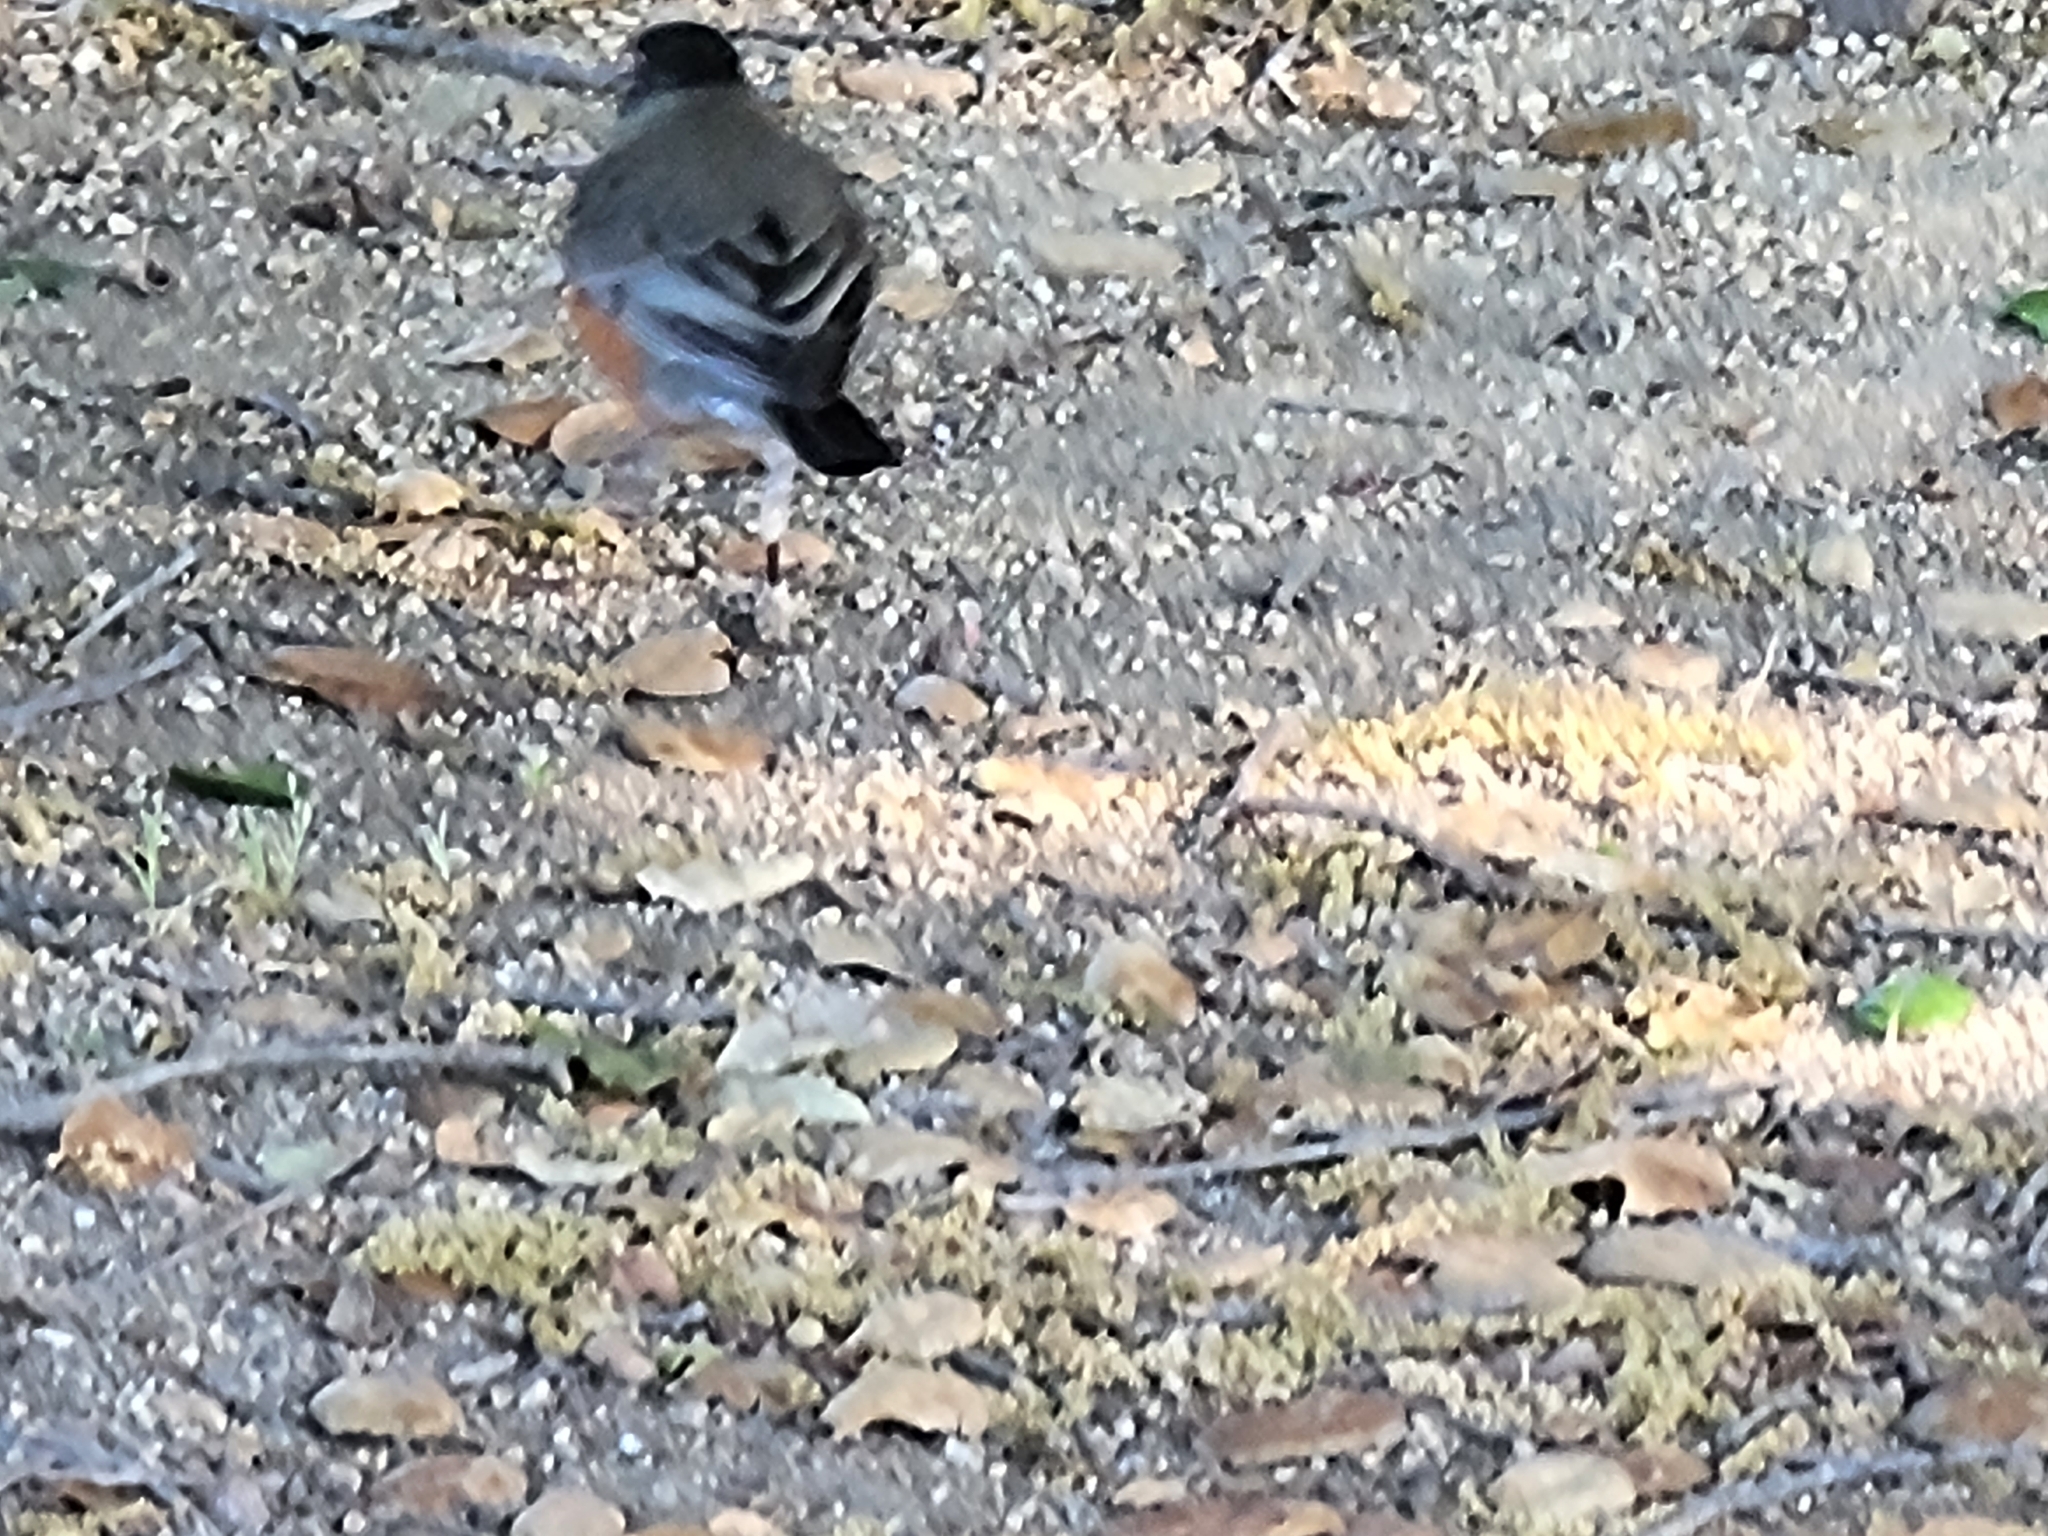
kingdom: Animalia
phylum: Chordata
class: Aves
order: Passeriformes
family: Turdidae
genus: Turdus
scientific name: Turdus migratorius
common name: American robin
